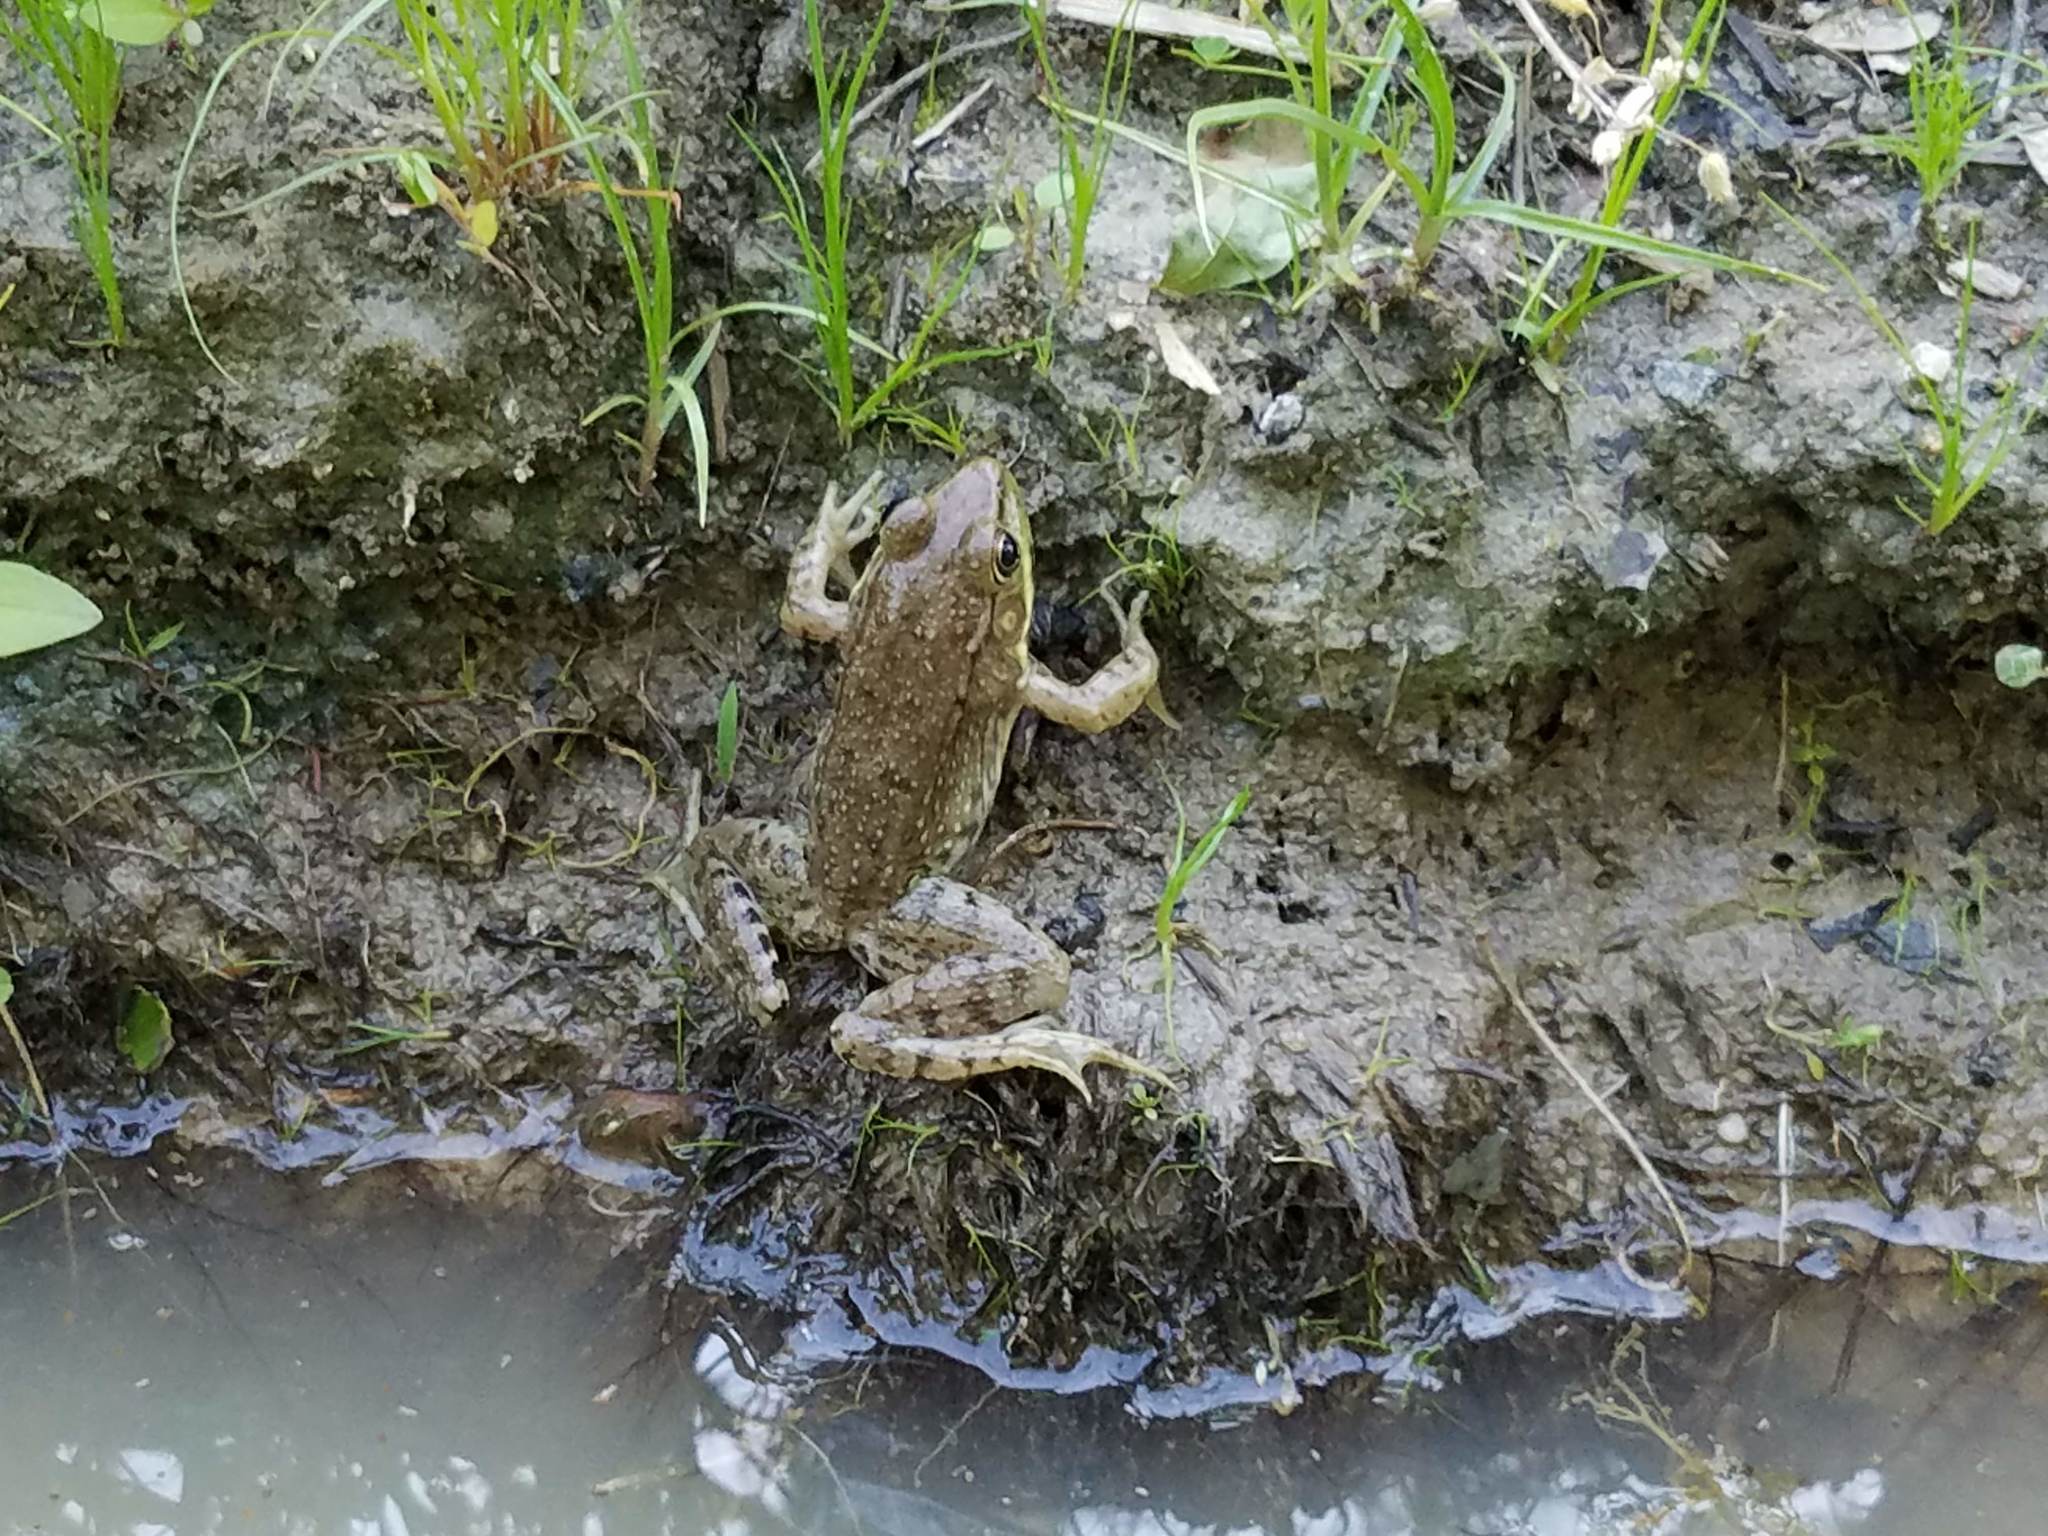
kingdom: Animalia
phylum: Chordata
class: Amphibia
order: Anura
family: Ranidae
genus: Lithobates
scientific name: Lithobates clamitans
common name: Green frog
